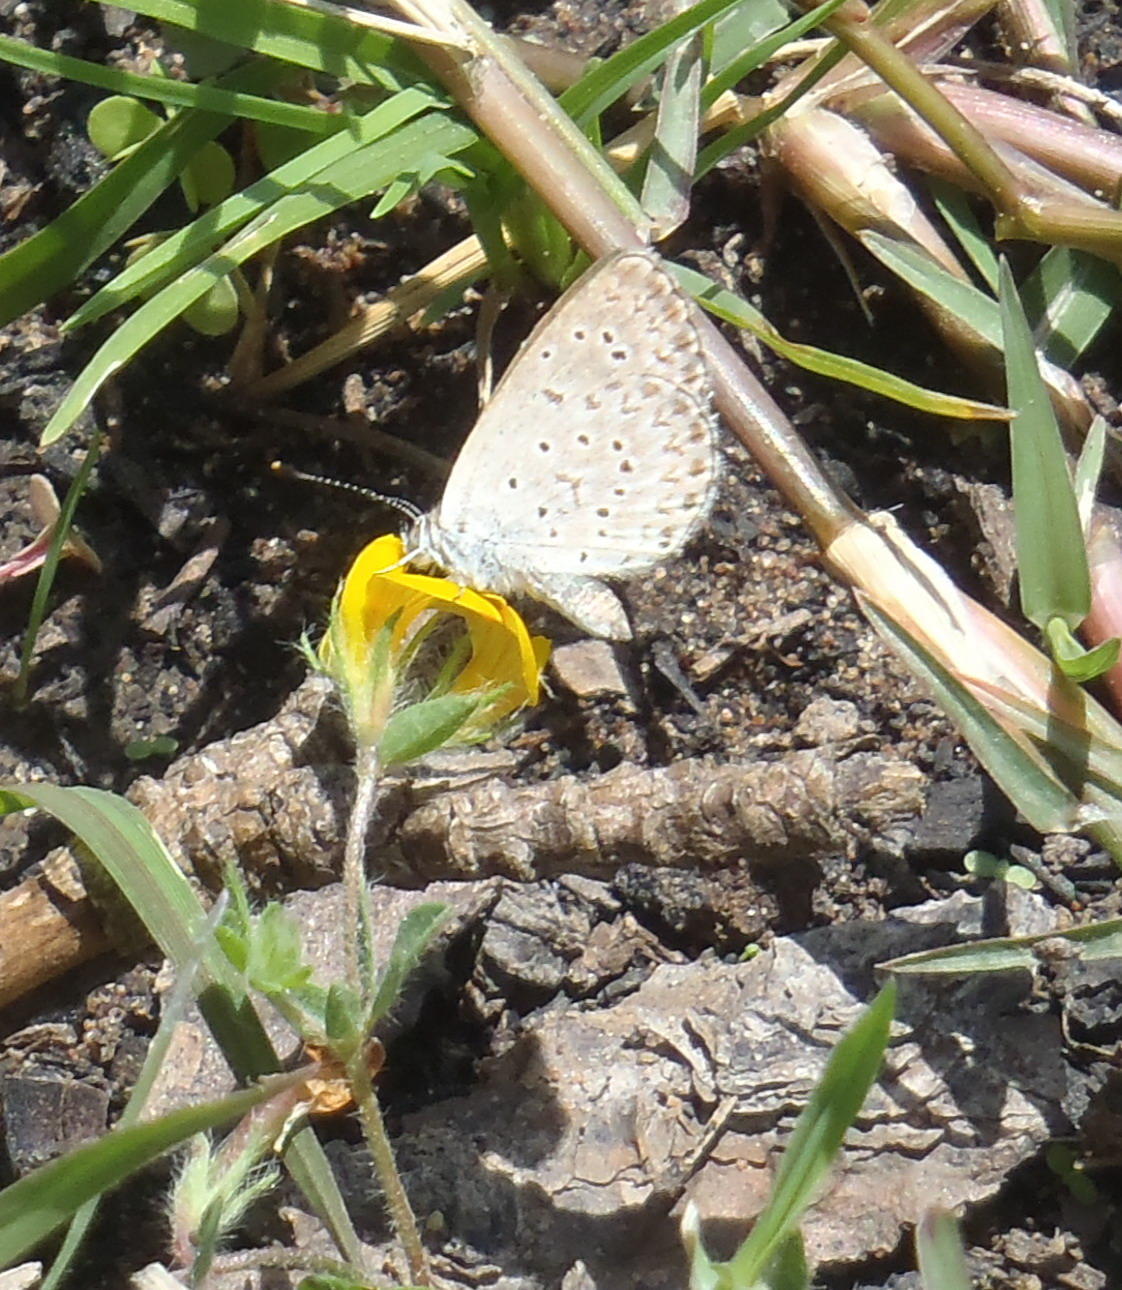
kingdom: Animalia
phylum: Arthropoda
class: Insecta
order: Lepidoptera
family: Lycaenidae
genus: Zizeeria
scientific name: Zizeeria knysna
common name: African grass blue
